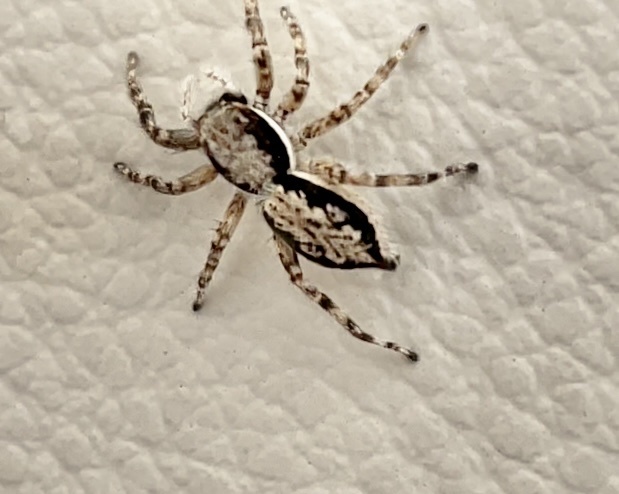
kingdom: Animalia
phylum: Arthropoda
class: Arachnida
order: Araneae
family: Salticidae
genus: Menemerus
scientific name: Menemerus bivittatus
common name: Gray wall jumper
